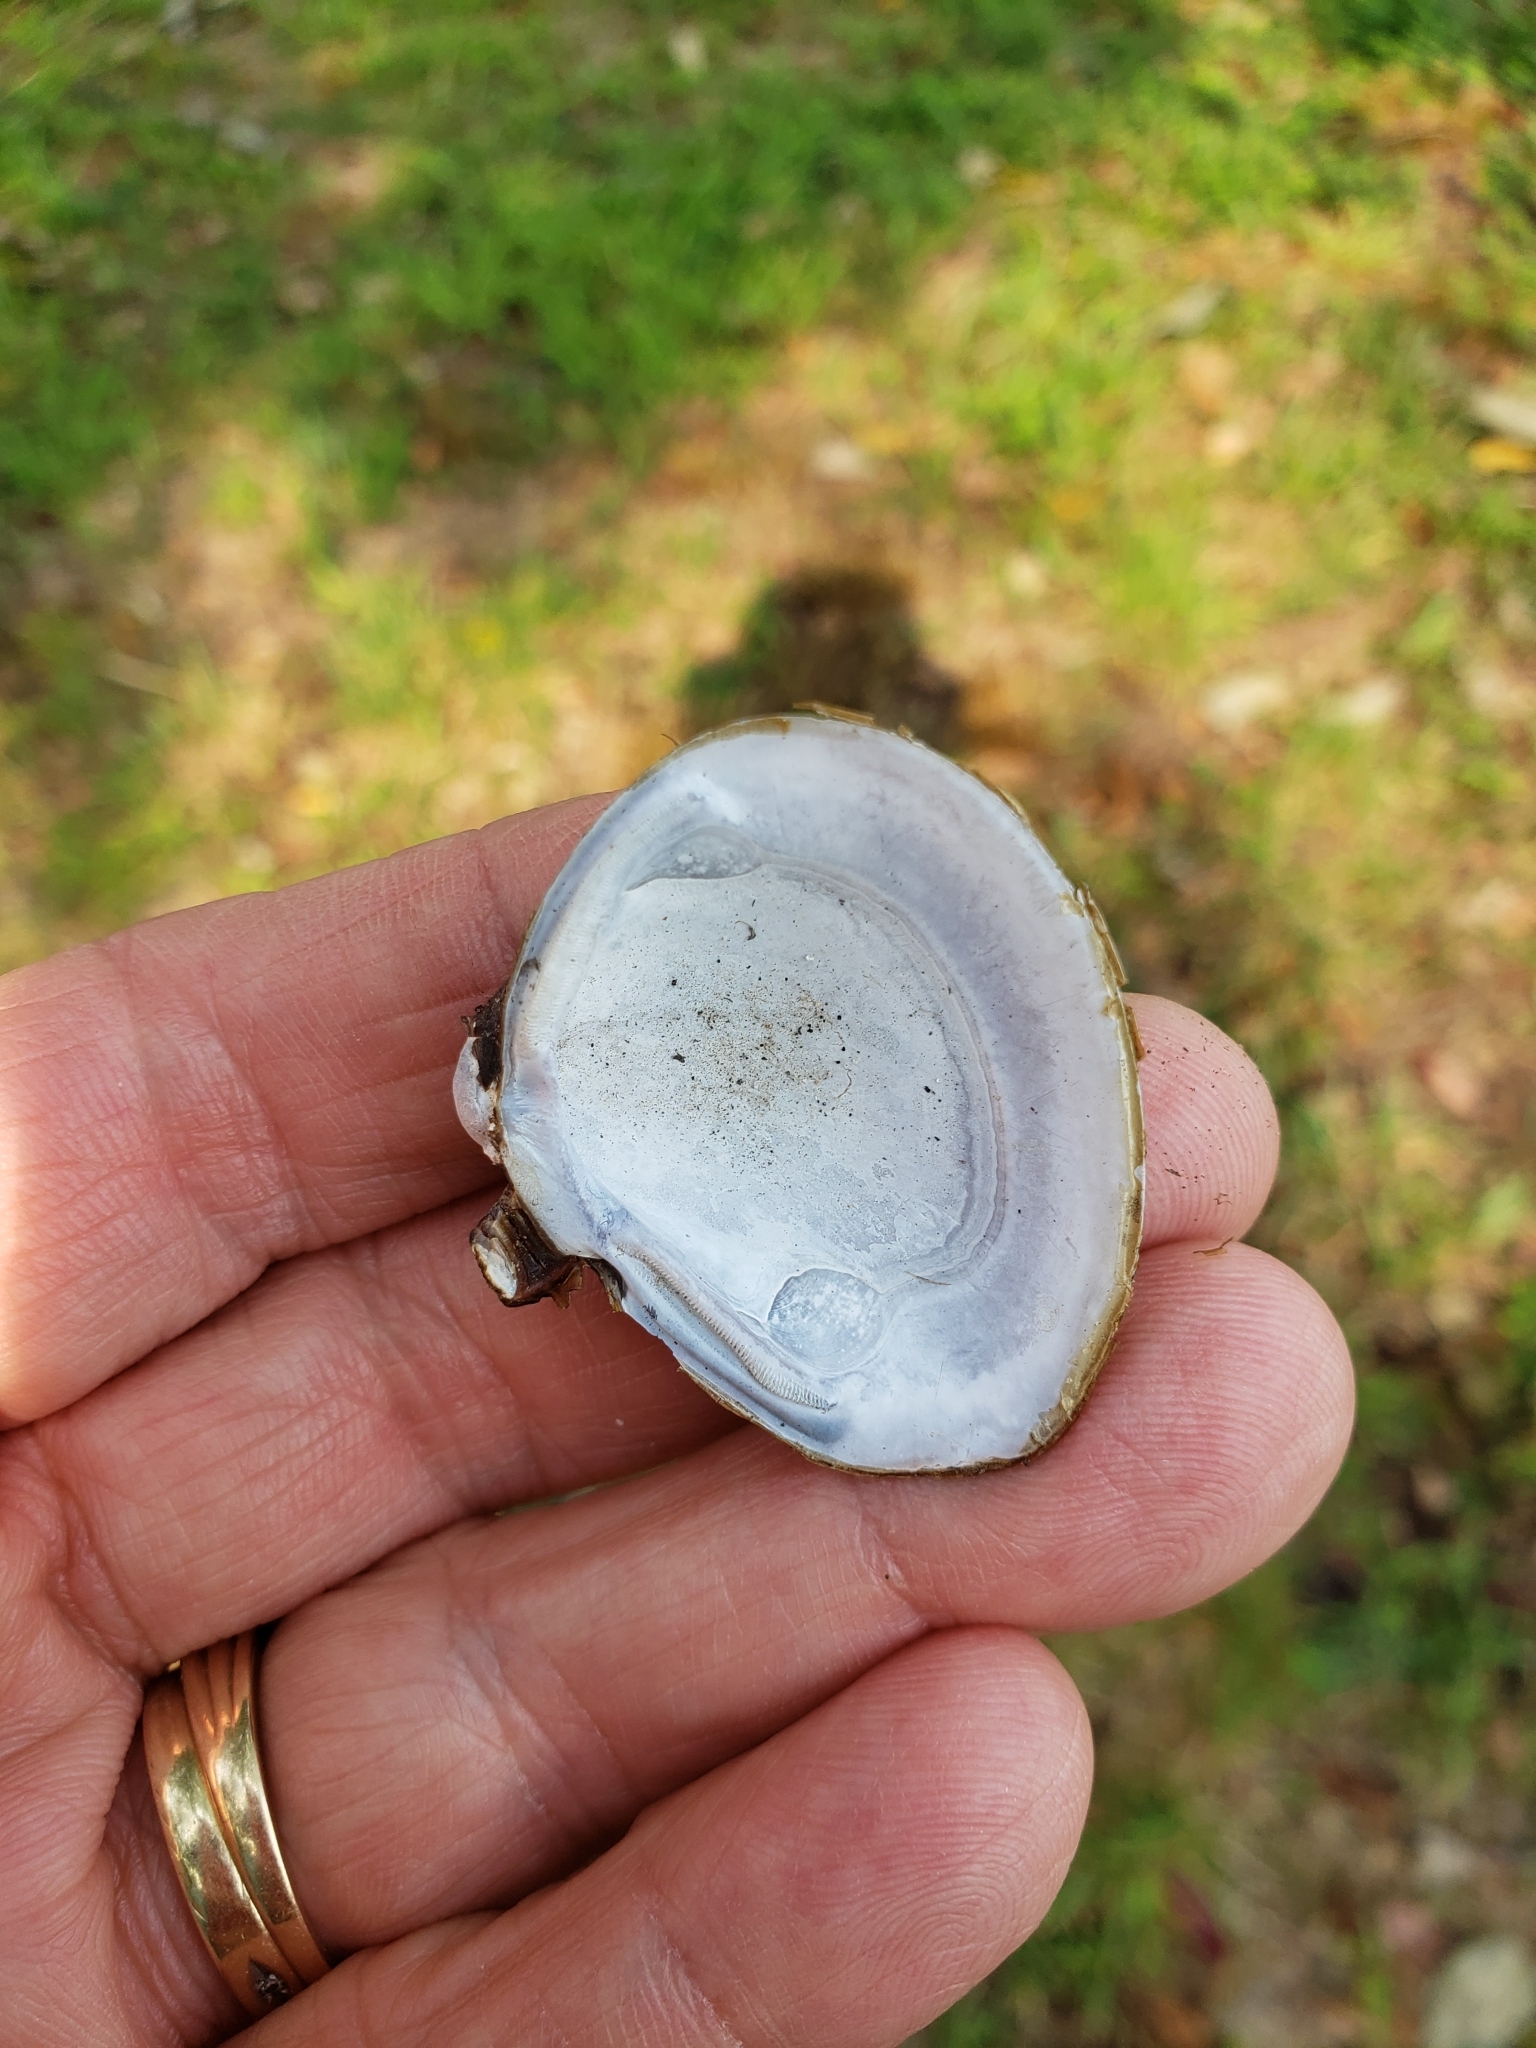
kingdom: Animalia
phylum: Mollusca
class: Bivalvia
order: Venerida
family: Cyrenidae
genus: Corbicula
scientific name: Corbicula fluminea
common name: Asian clam
